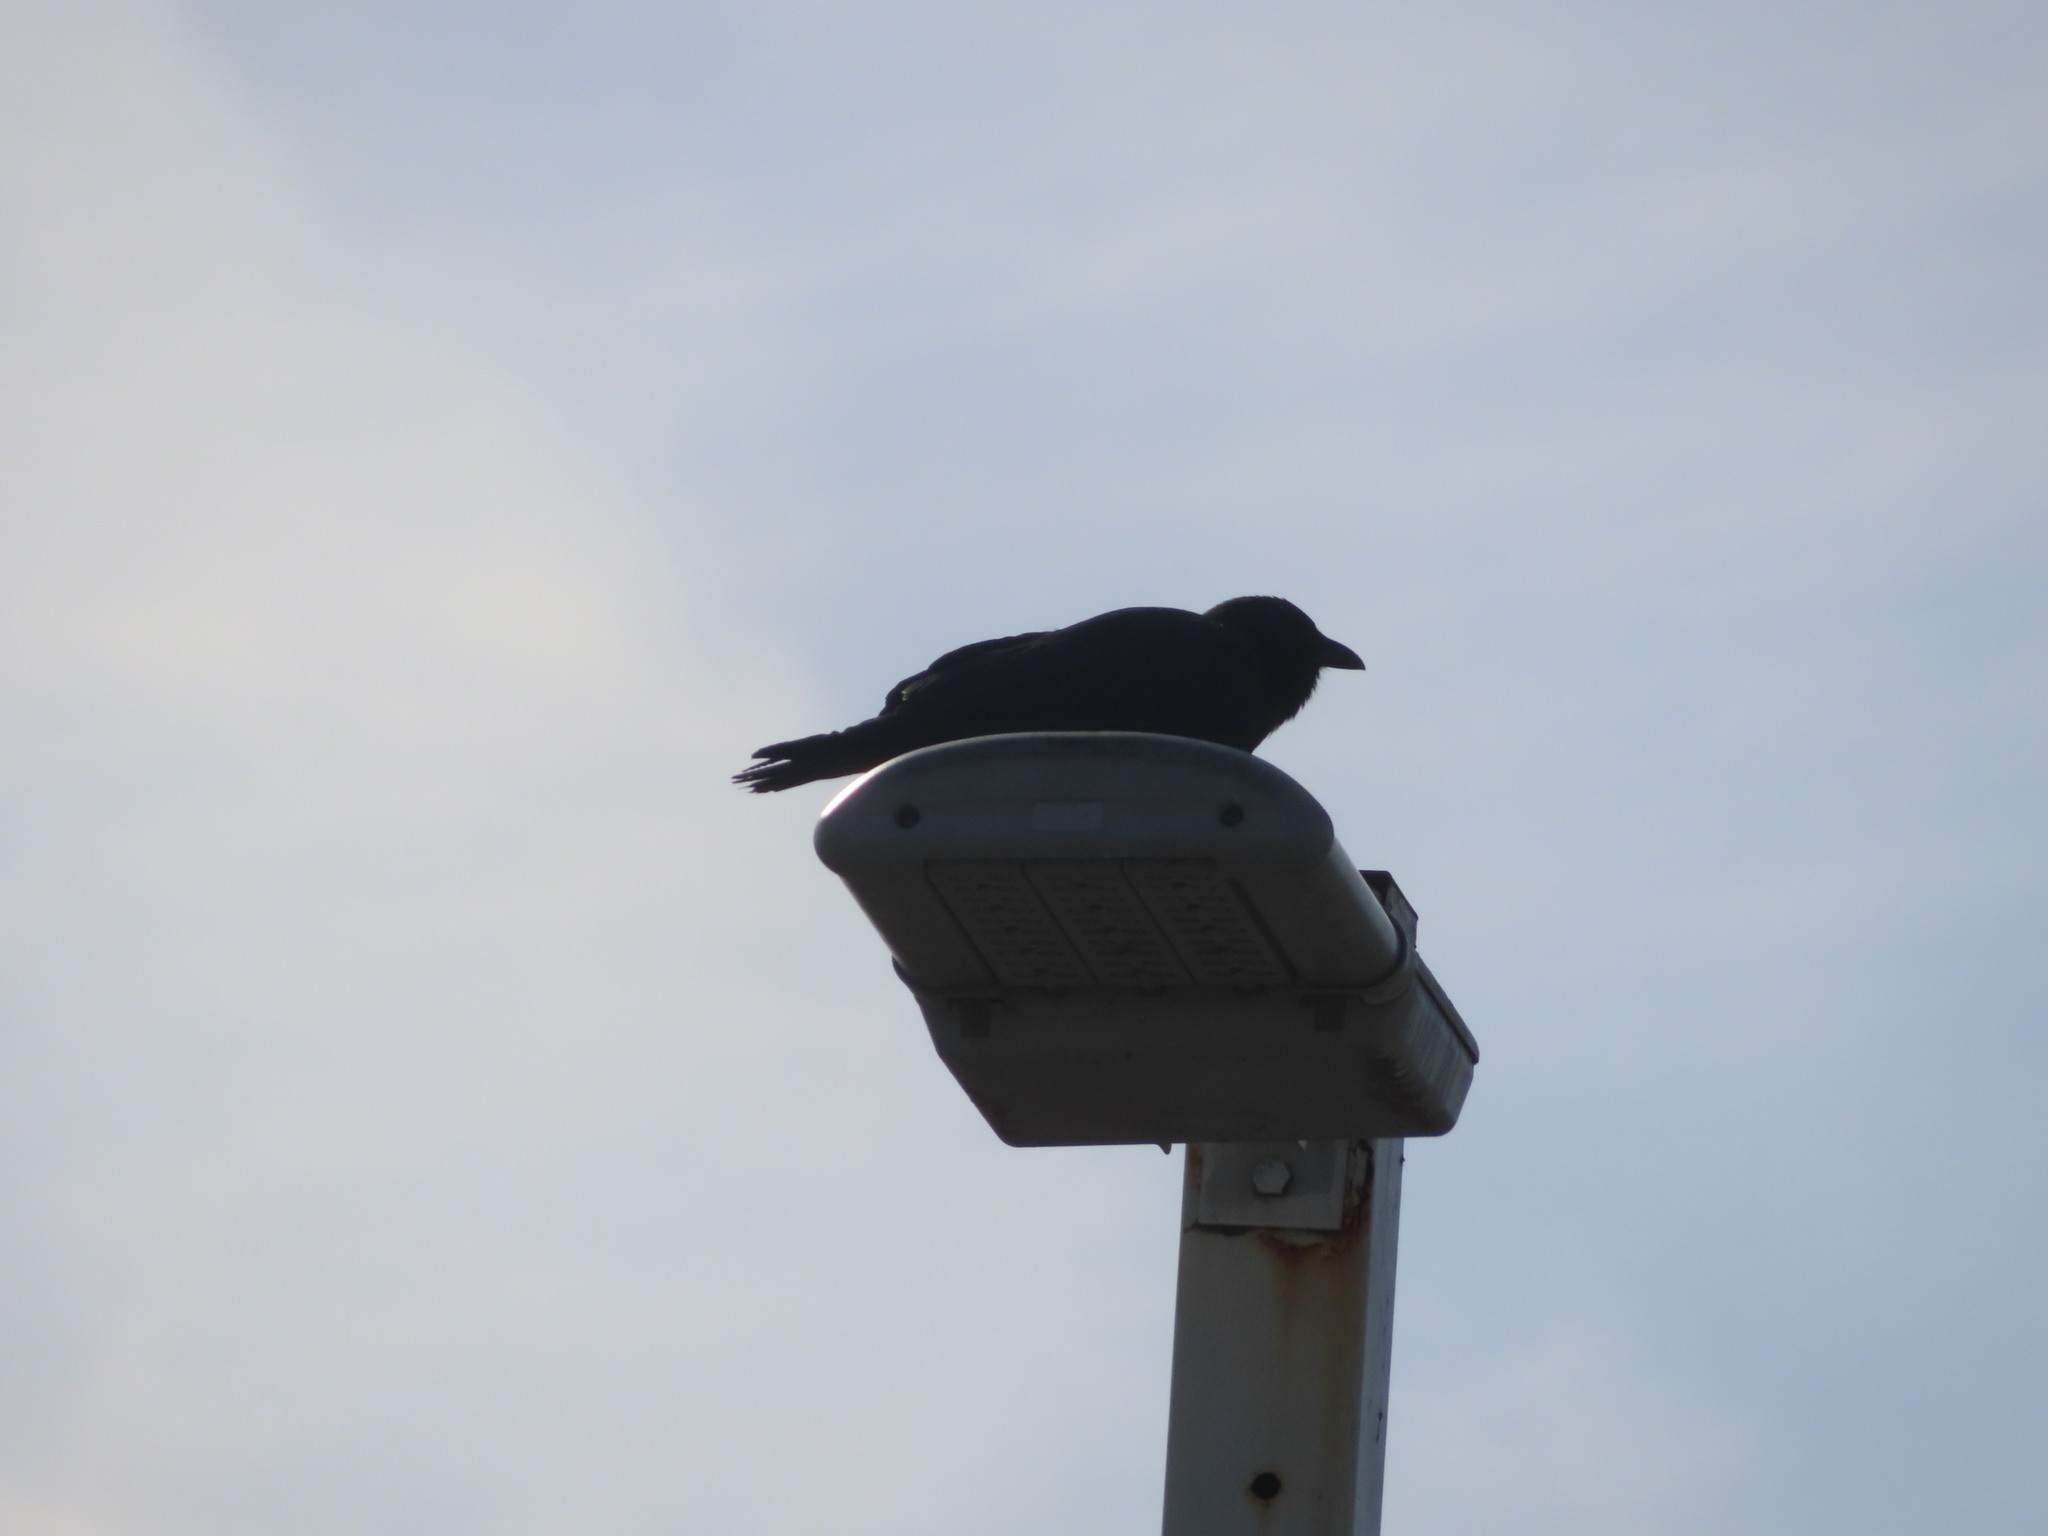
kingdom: Animalia
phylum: Chordata
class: Aves
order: Passeriformes
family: Corvidae
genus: Corvus
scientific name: Corvus
